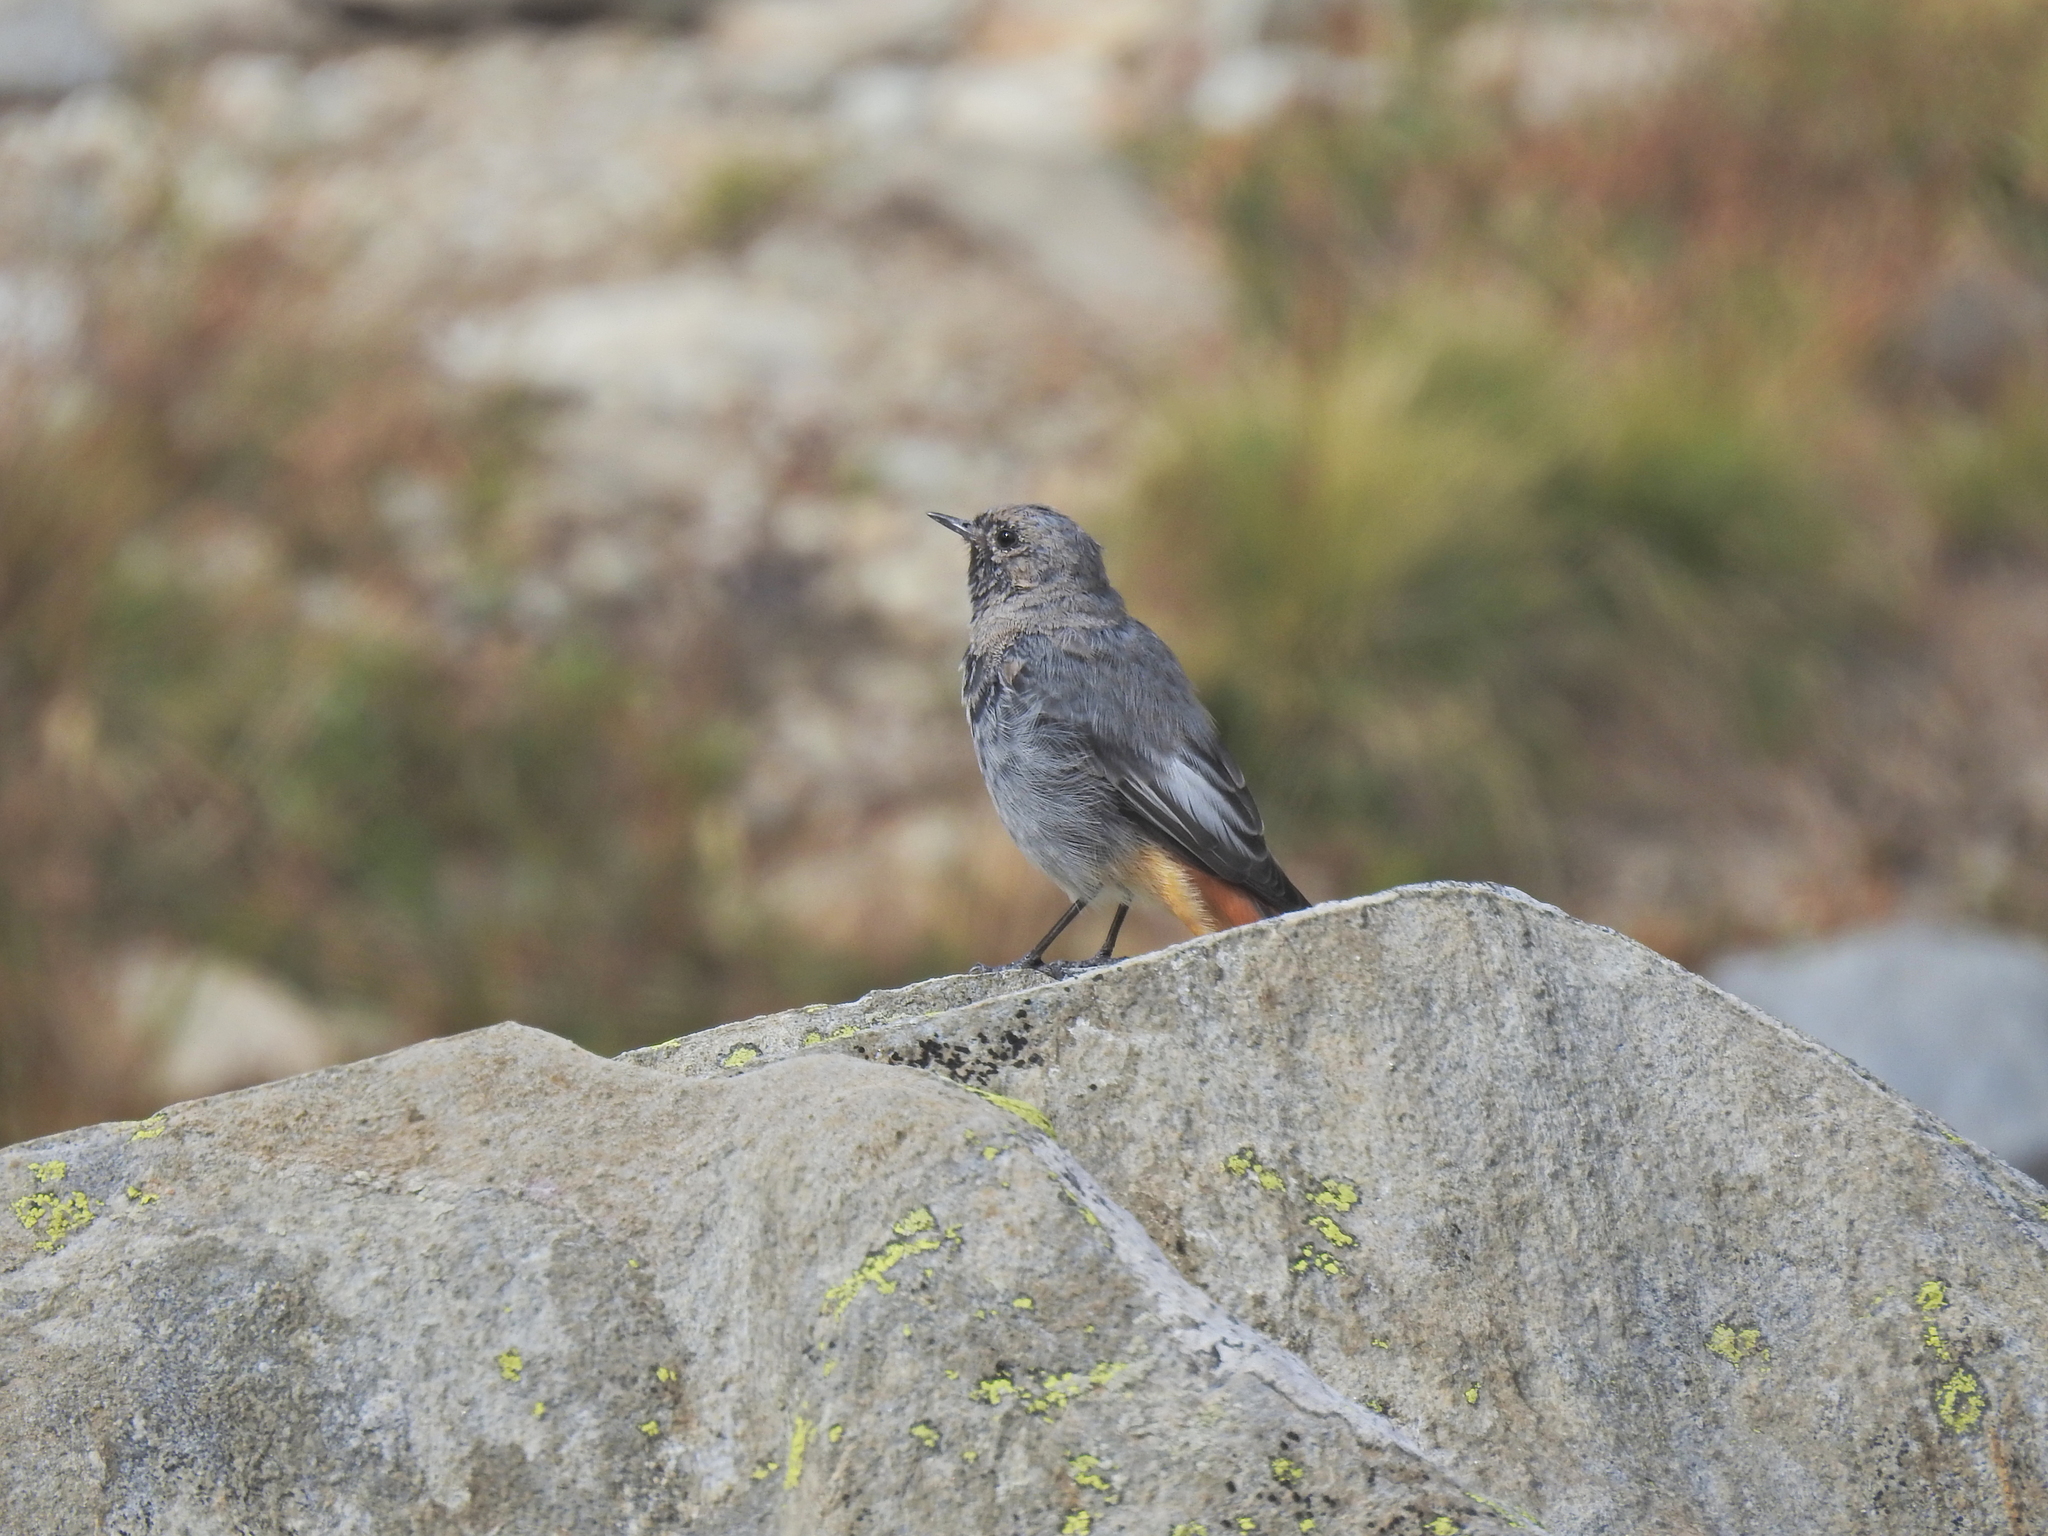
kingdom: Animalia
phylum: Chordata
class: Aves
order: Passeriformes
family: Muscicapidae
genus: Phoenicurus
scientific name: Phoenicurus ochruros
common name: Black redstart
